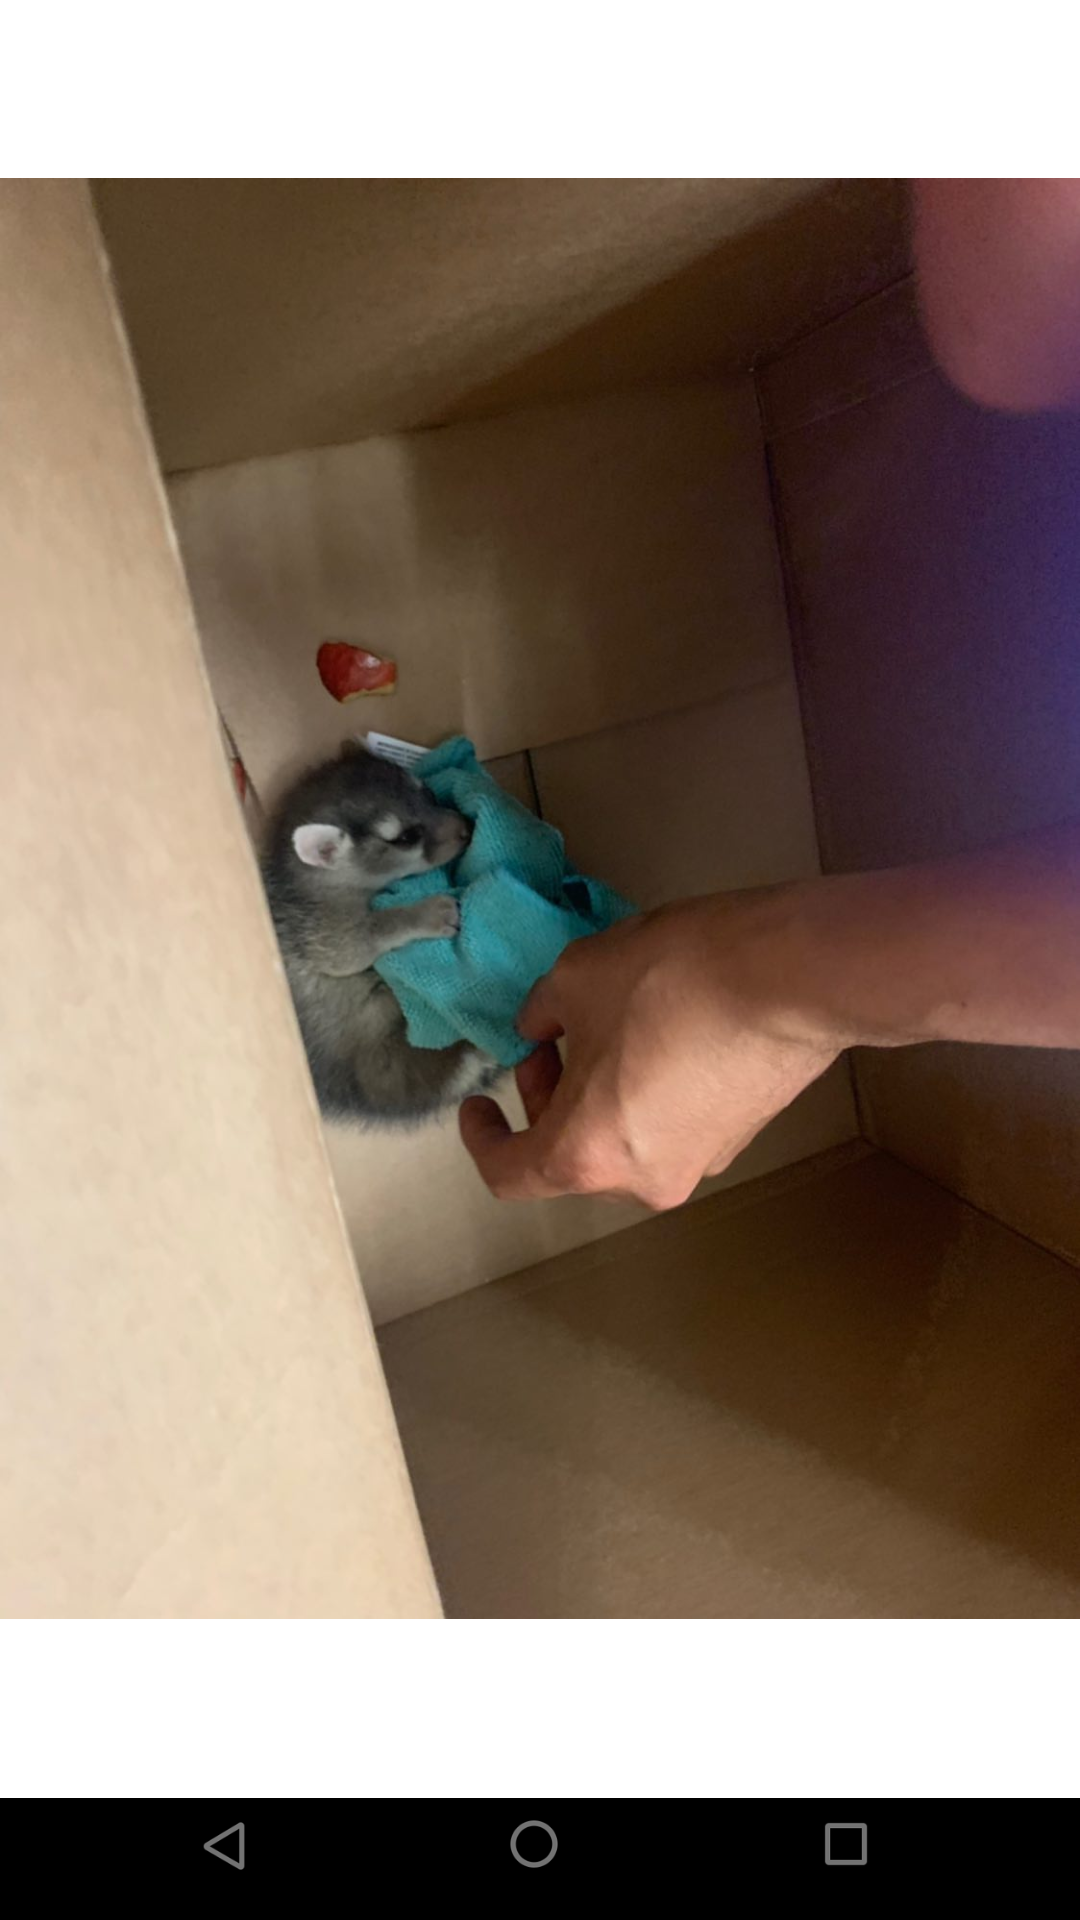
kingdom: Animalia
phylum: Chordata
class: Mammalia
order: Carnivora
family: Procyonidae
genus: Bassariscus
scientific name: Bassariscus astutus
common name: Ringtail
